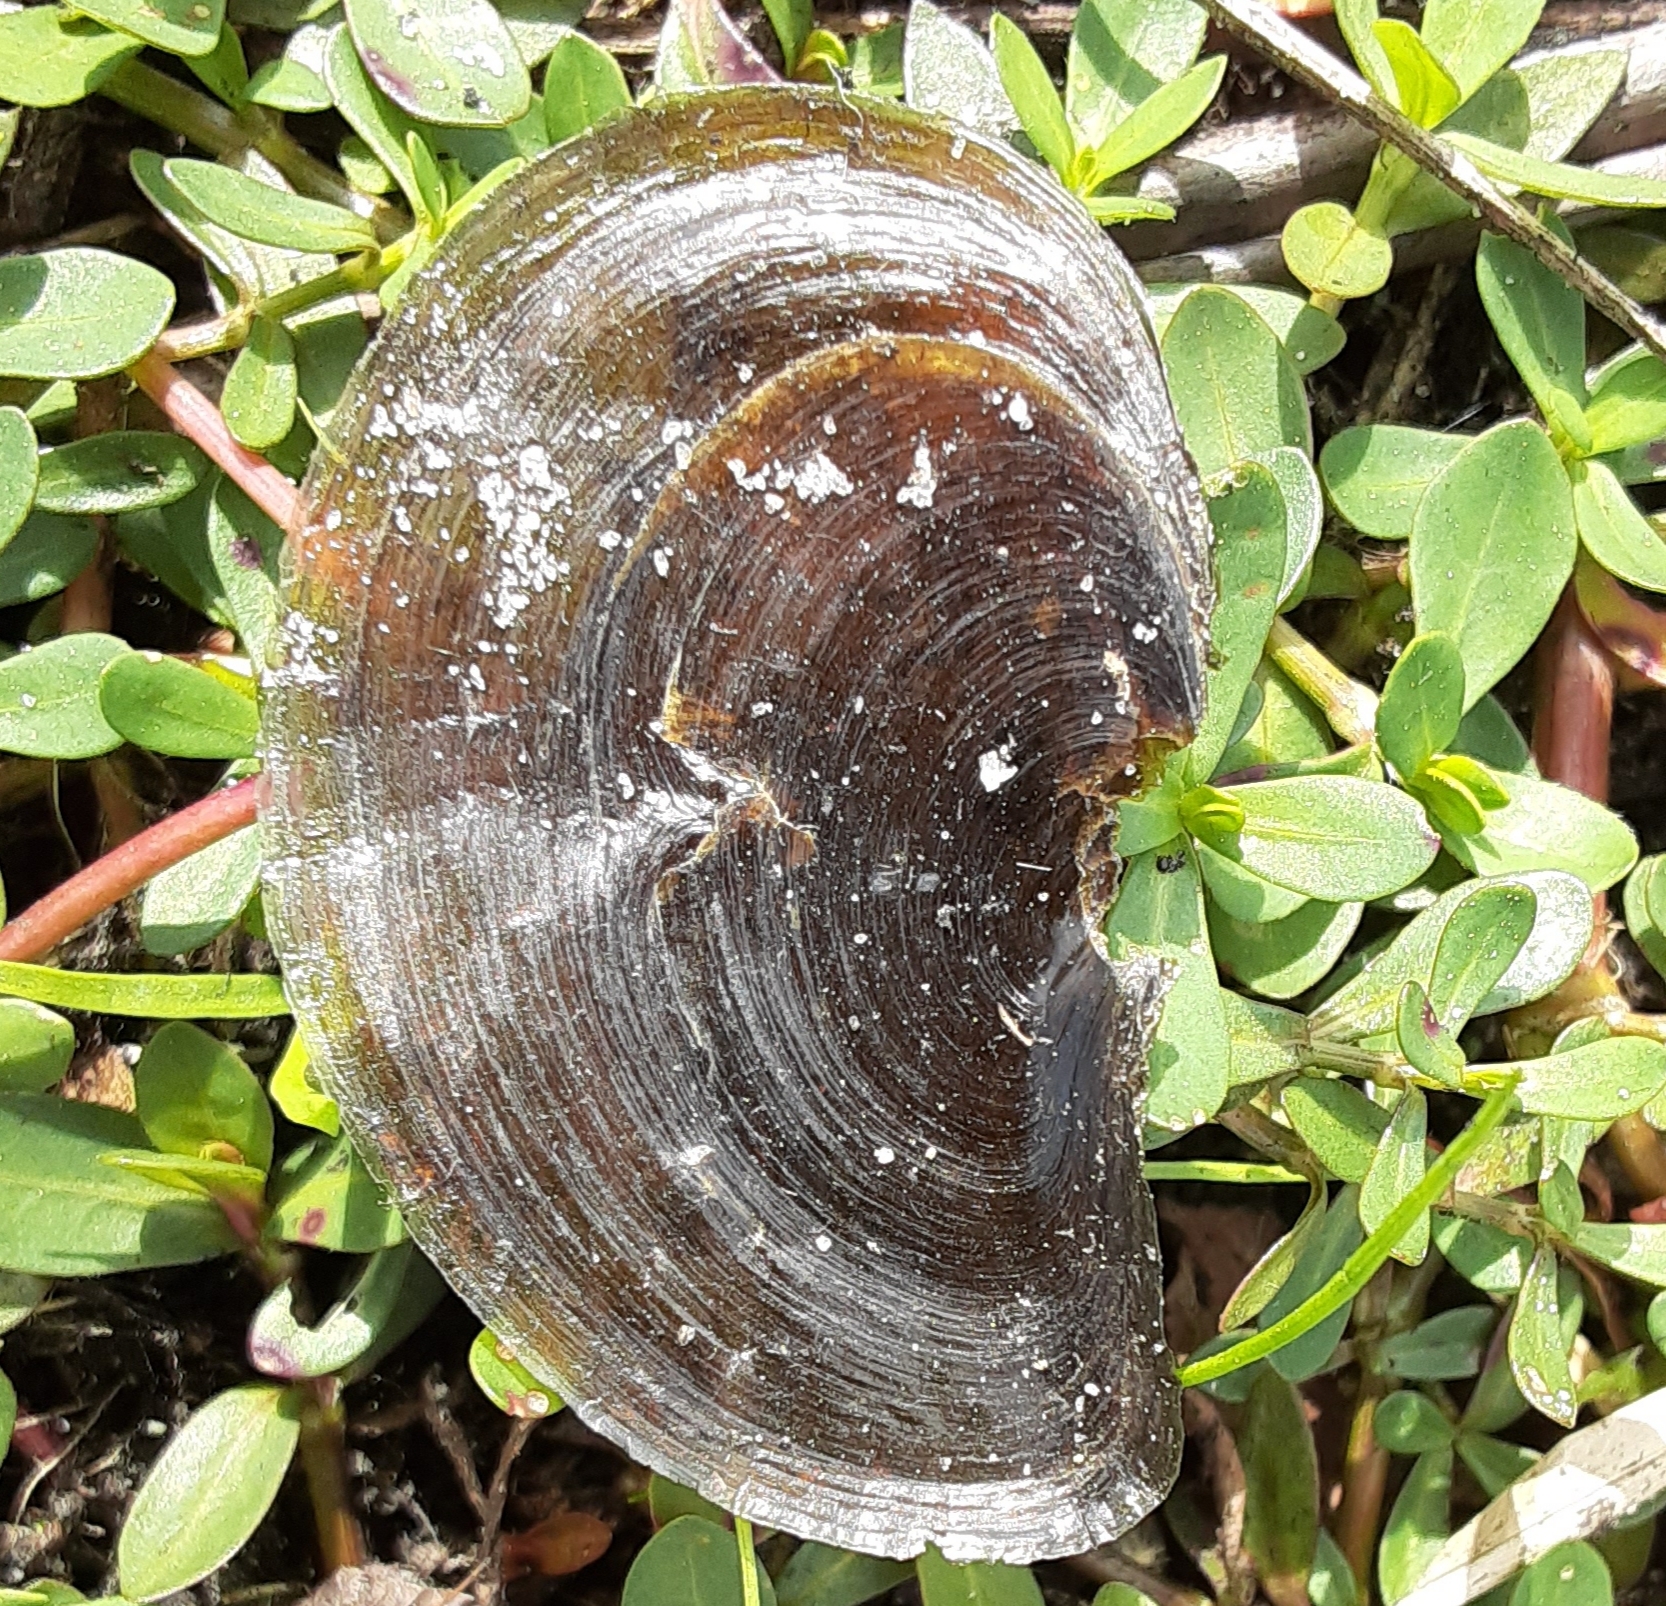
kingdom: Animalia
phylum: Mollusca
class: Gastropoda
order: Architaenioglossa
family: Ampullariidae
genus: Pomacea
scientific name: Pomacea maculata
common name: Giant applesnail
